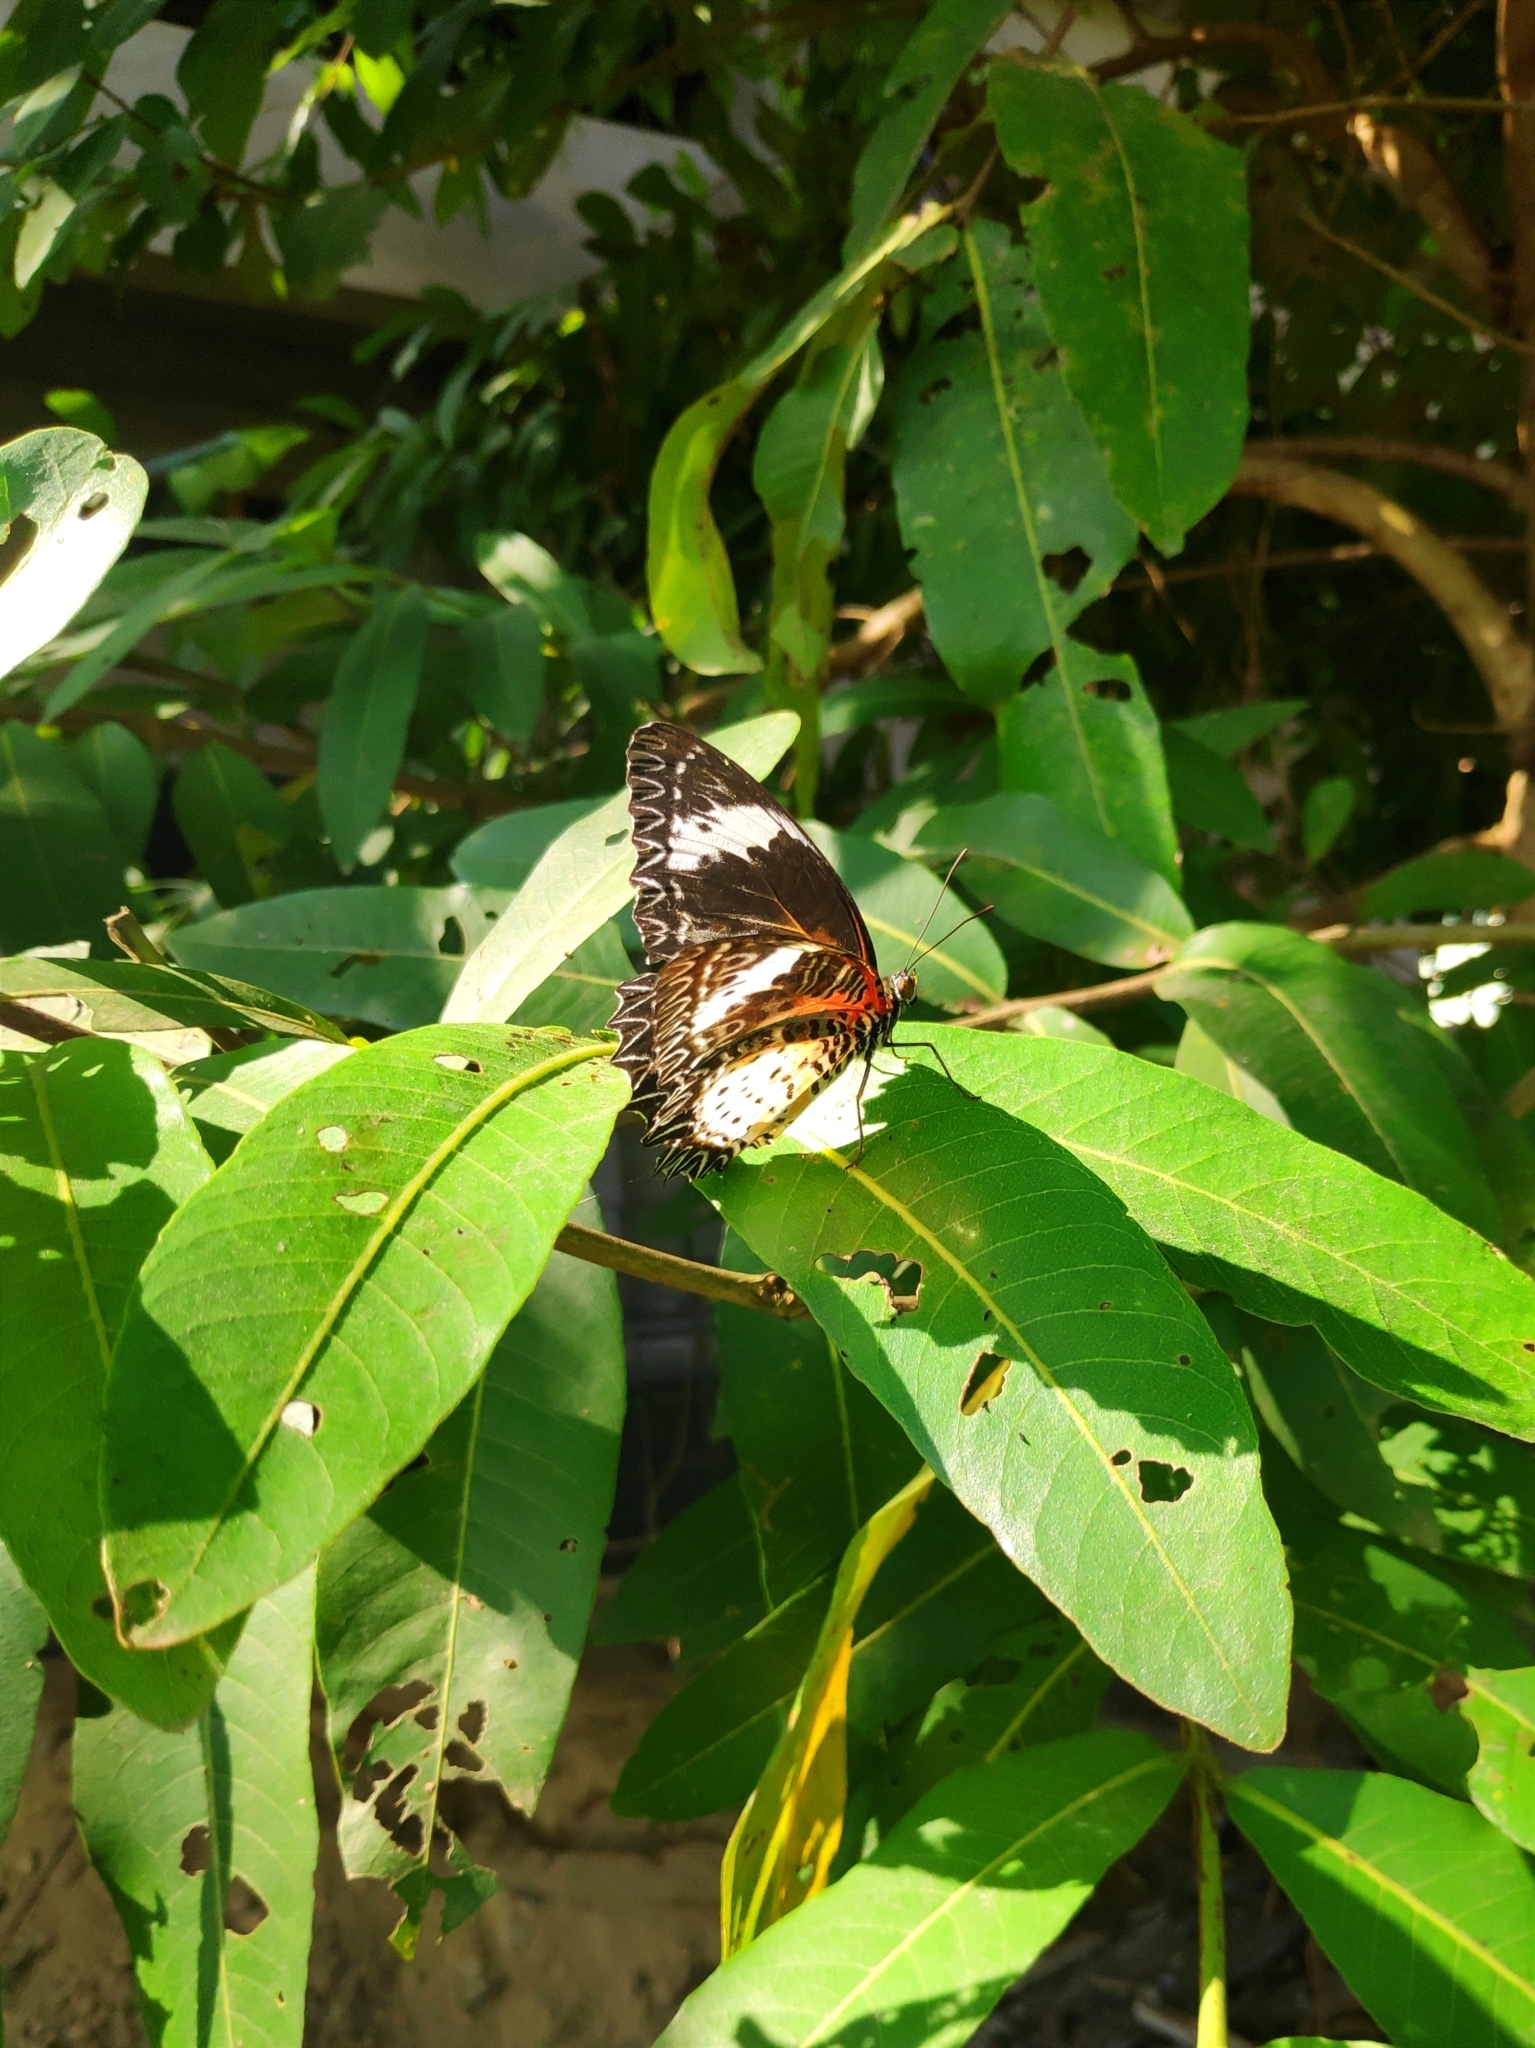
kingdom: Animalia
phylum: Arthropoda
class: Insecta
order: Lepidoptera
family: Nymphalidae
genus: Cethosia
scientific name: Cethosia cyane
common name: Leopard lacewing butterfly
